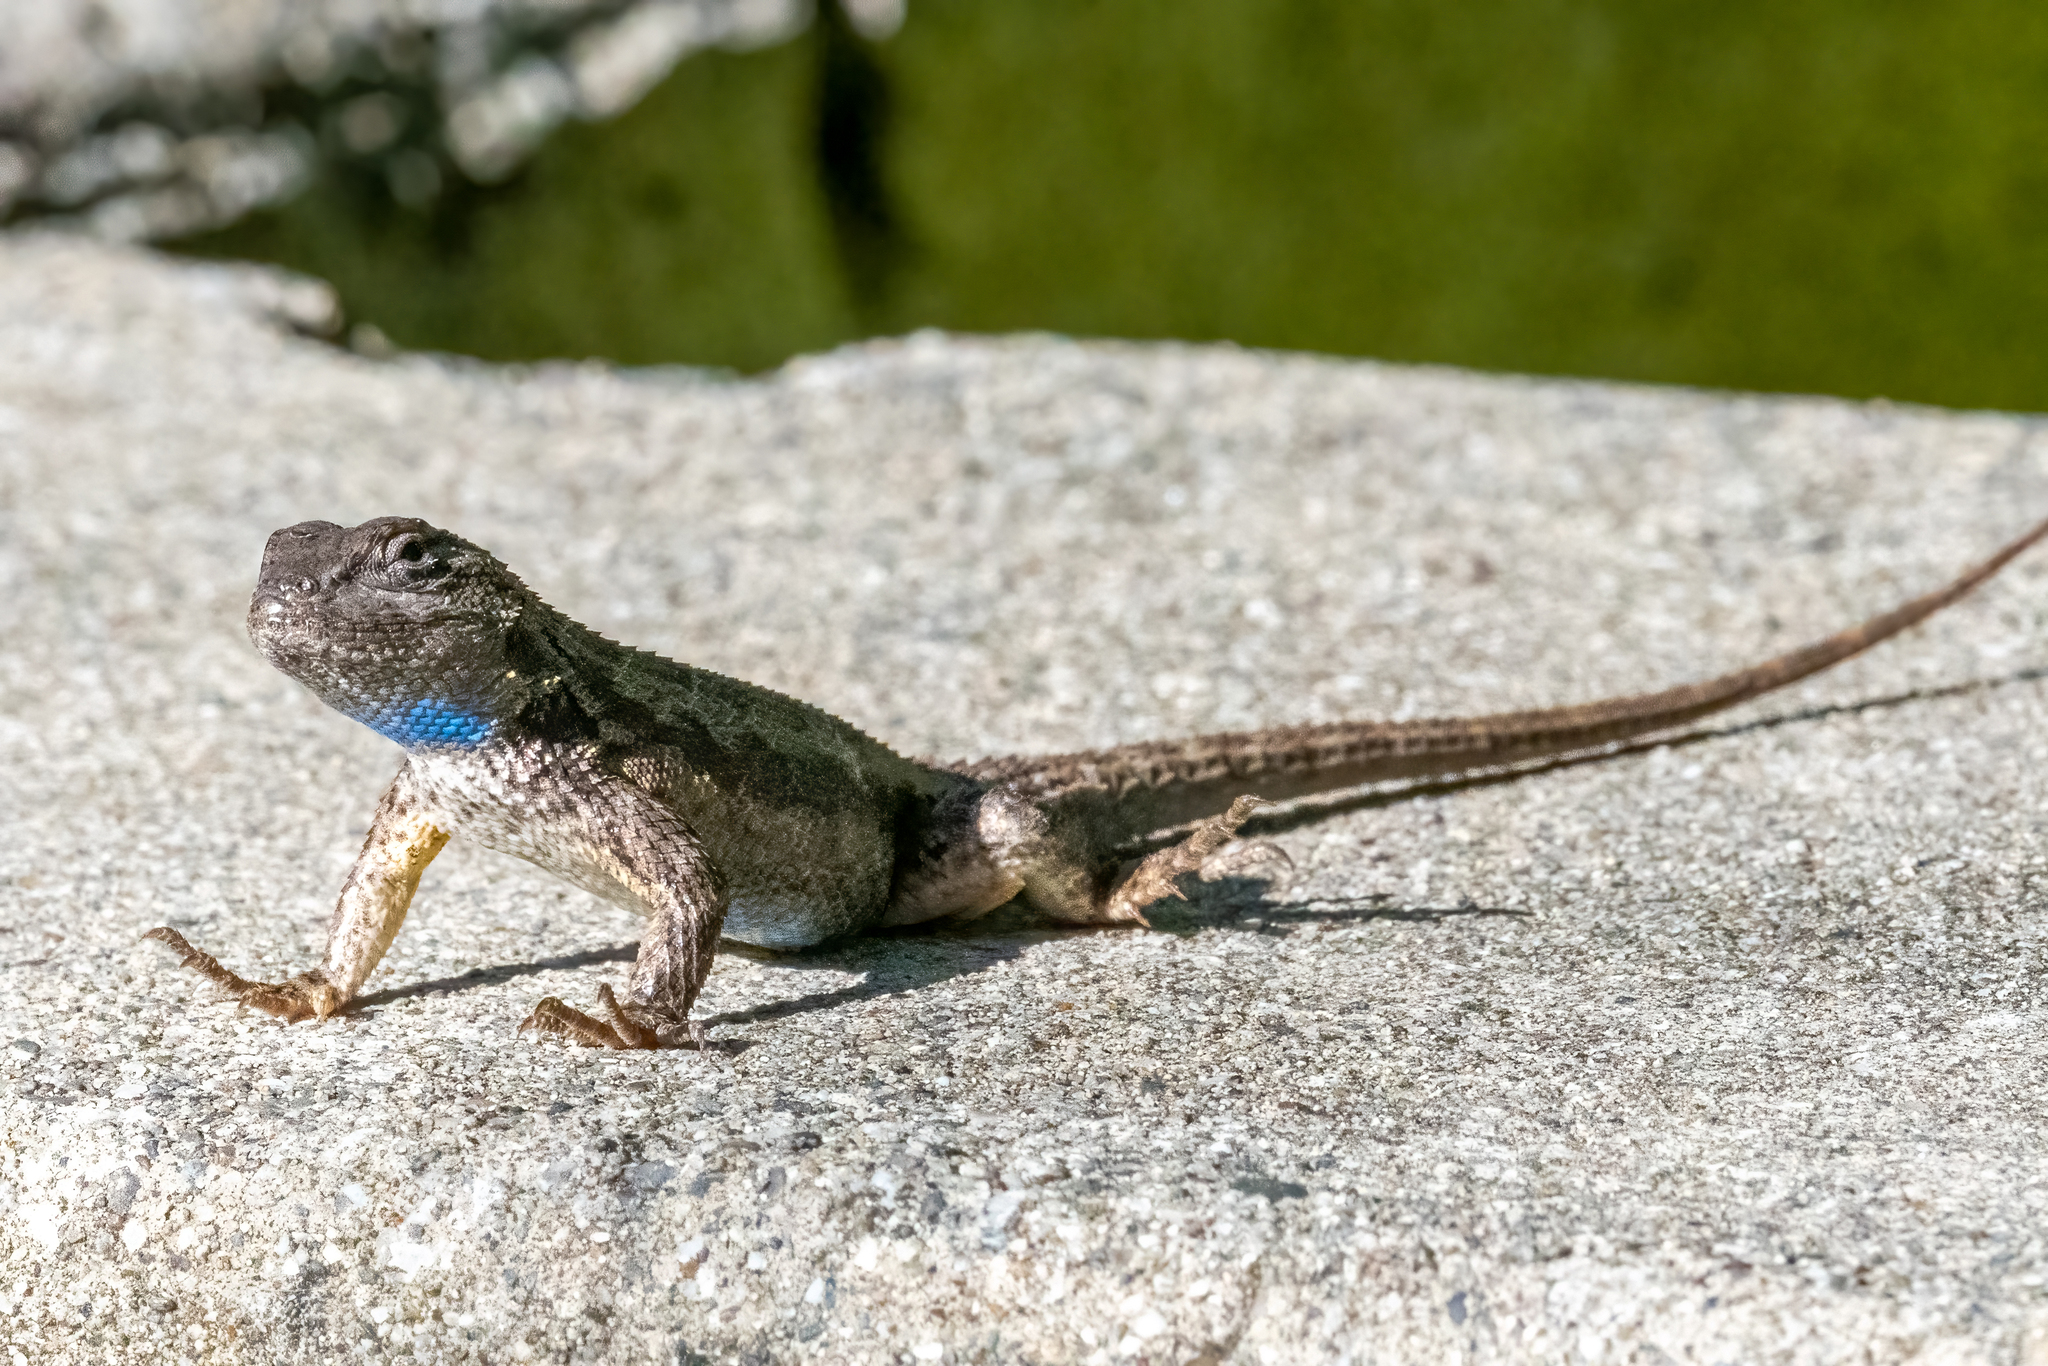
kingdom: Animalia
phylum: Chordata
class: Squamata
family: Phrynosomatidae
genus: Sceloporus
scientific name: Sceloporus occidentalis
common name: Western fence lizard
